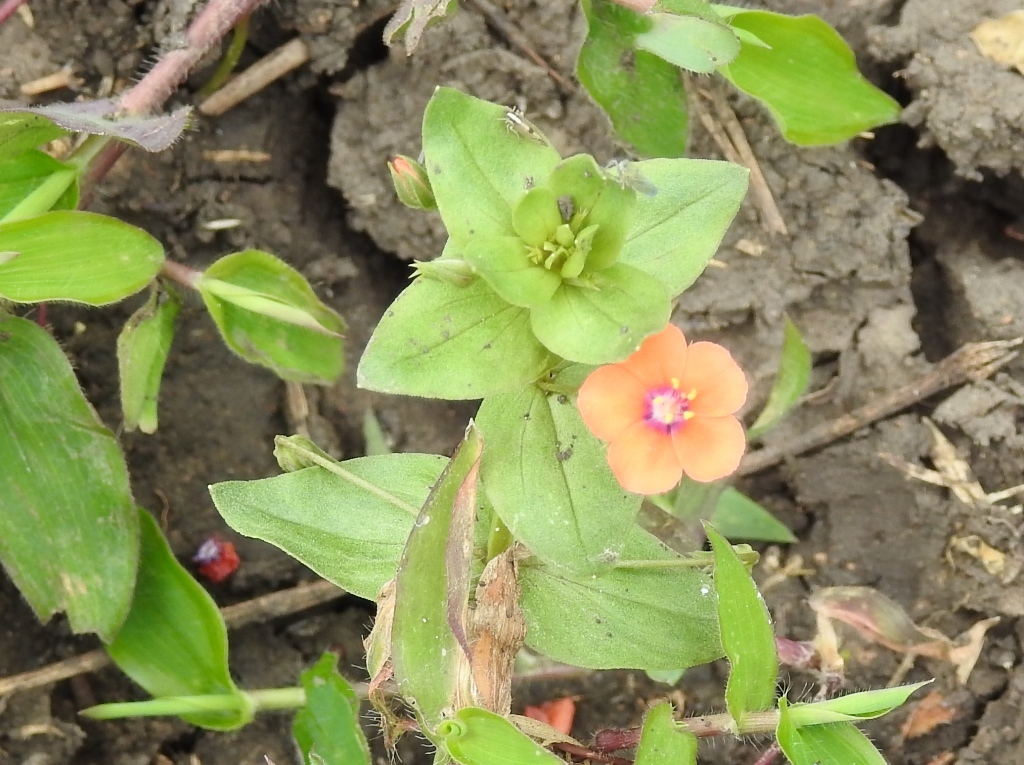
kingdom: Plantae
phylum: Tracheophyta
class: Magnoliopsida
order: Ericales
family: Primulaceae
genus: Lysimachia
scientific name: Lysimachia arvensis
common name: Scarlet pimpernel
